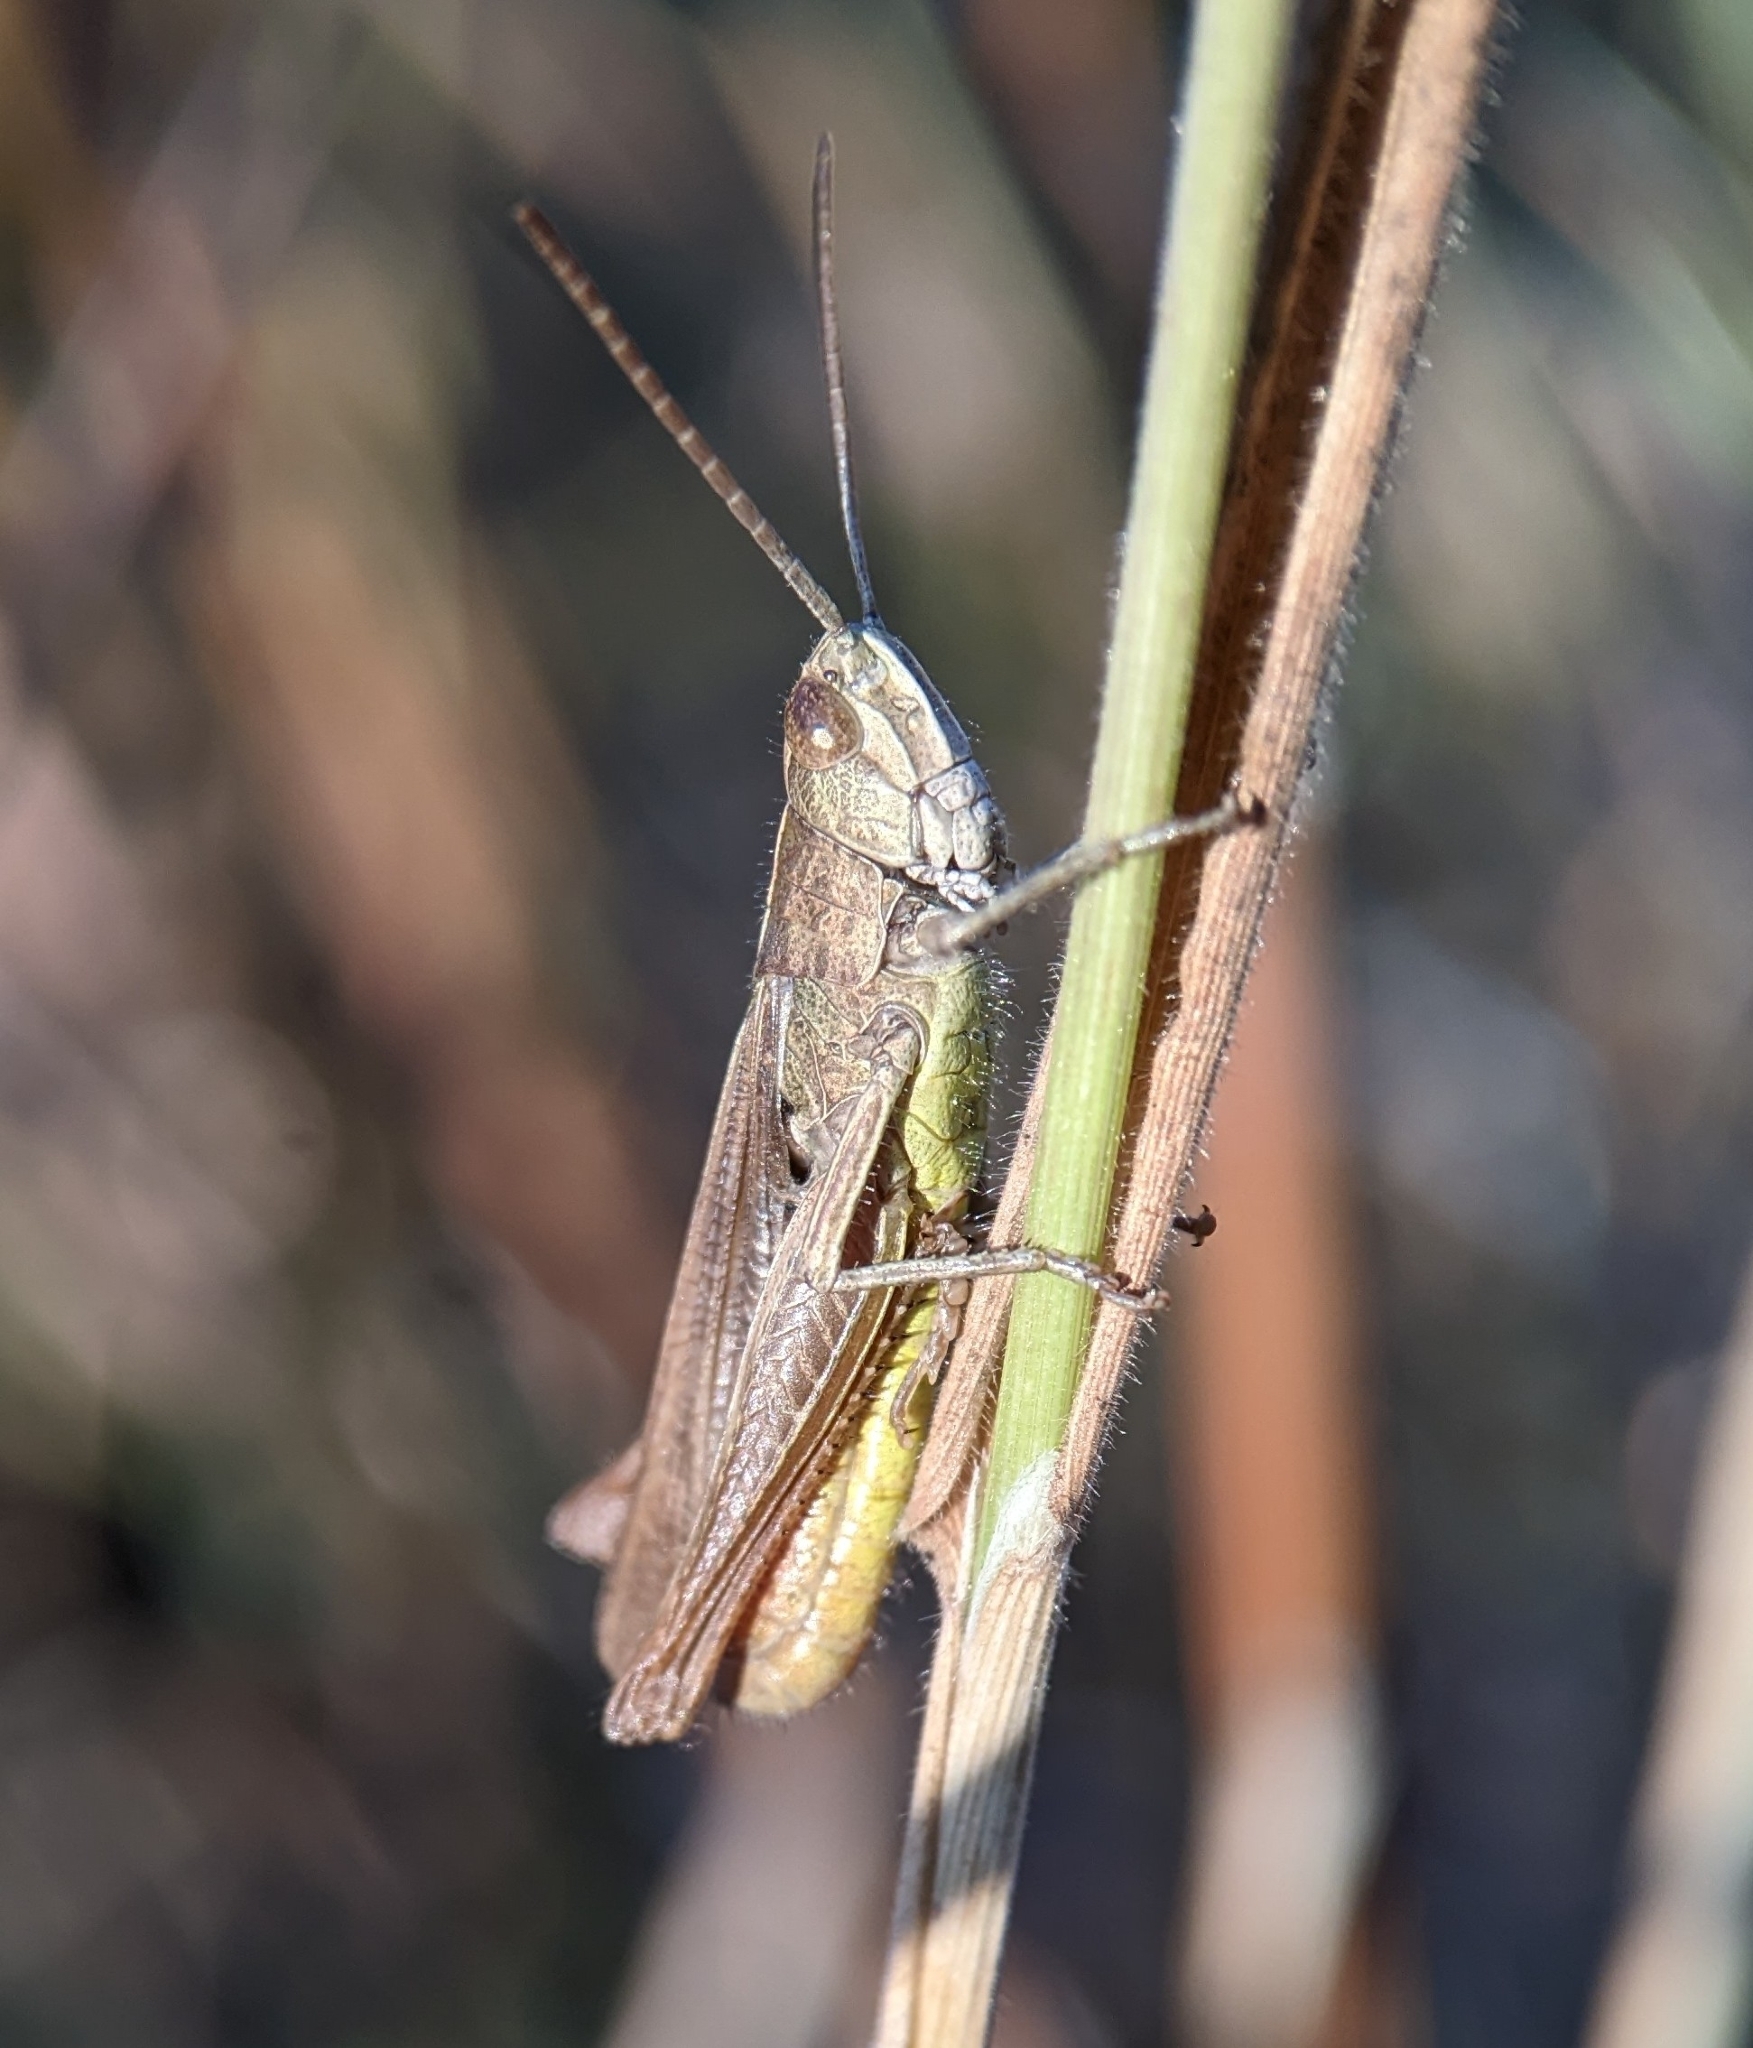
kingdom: Animalia
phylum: Arthropoda
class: Insecta
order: Orthoptera
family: Acrididae
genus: Chorthippus
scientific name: Chorthippus dorsatus
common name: Steppe grasshopper
